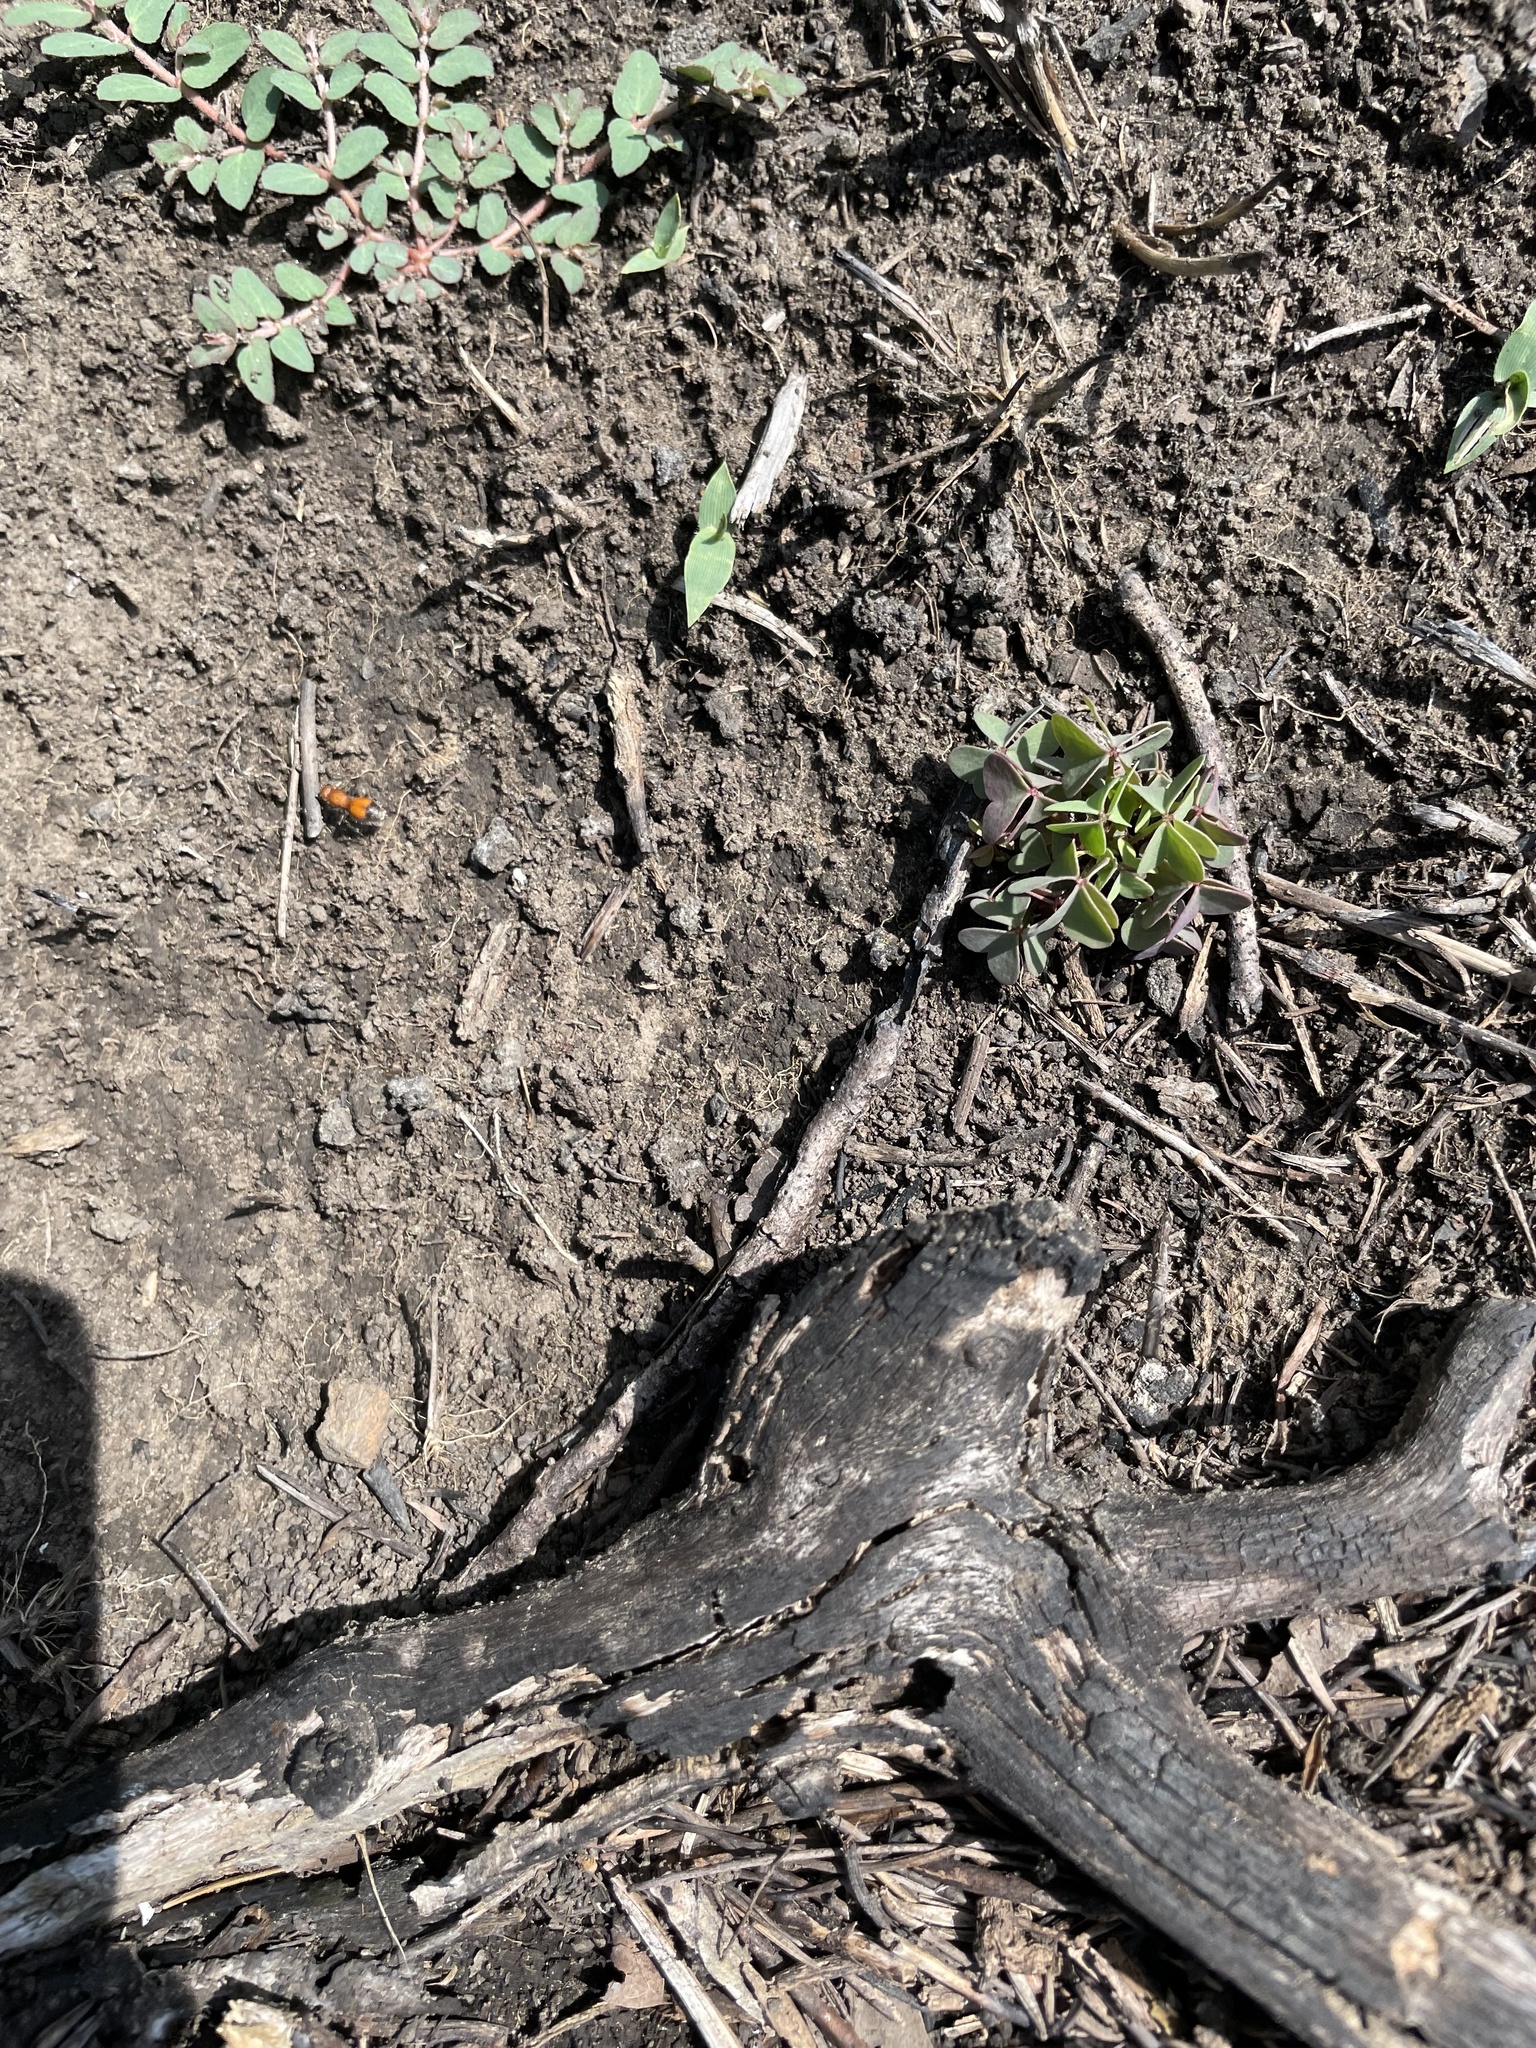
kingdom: Animalia
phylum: Arthropoda
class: Insecta
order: Hymenoptera
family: Mutillidae
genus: Dasymutilla
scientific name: Dasymutilla
